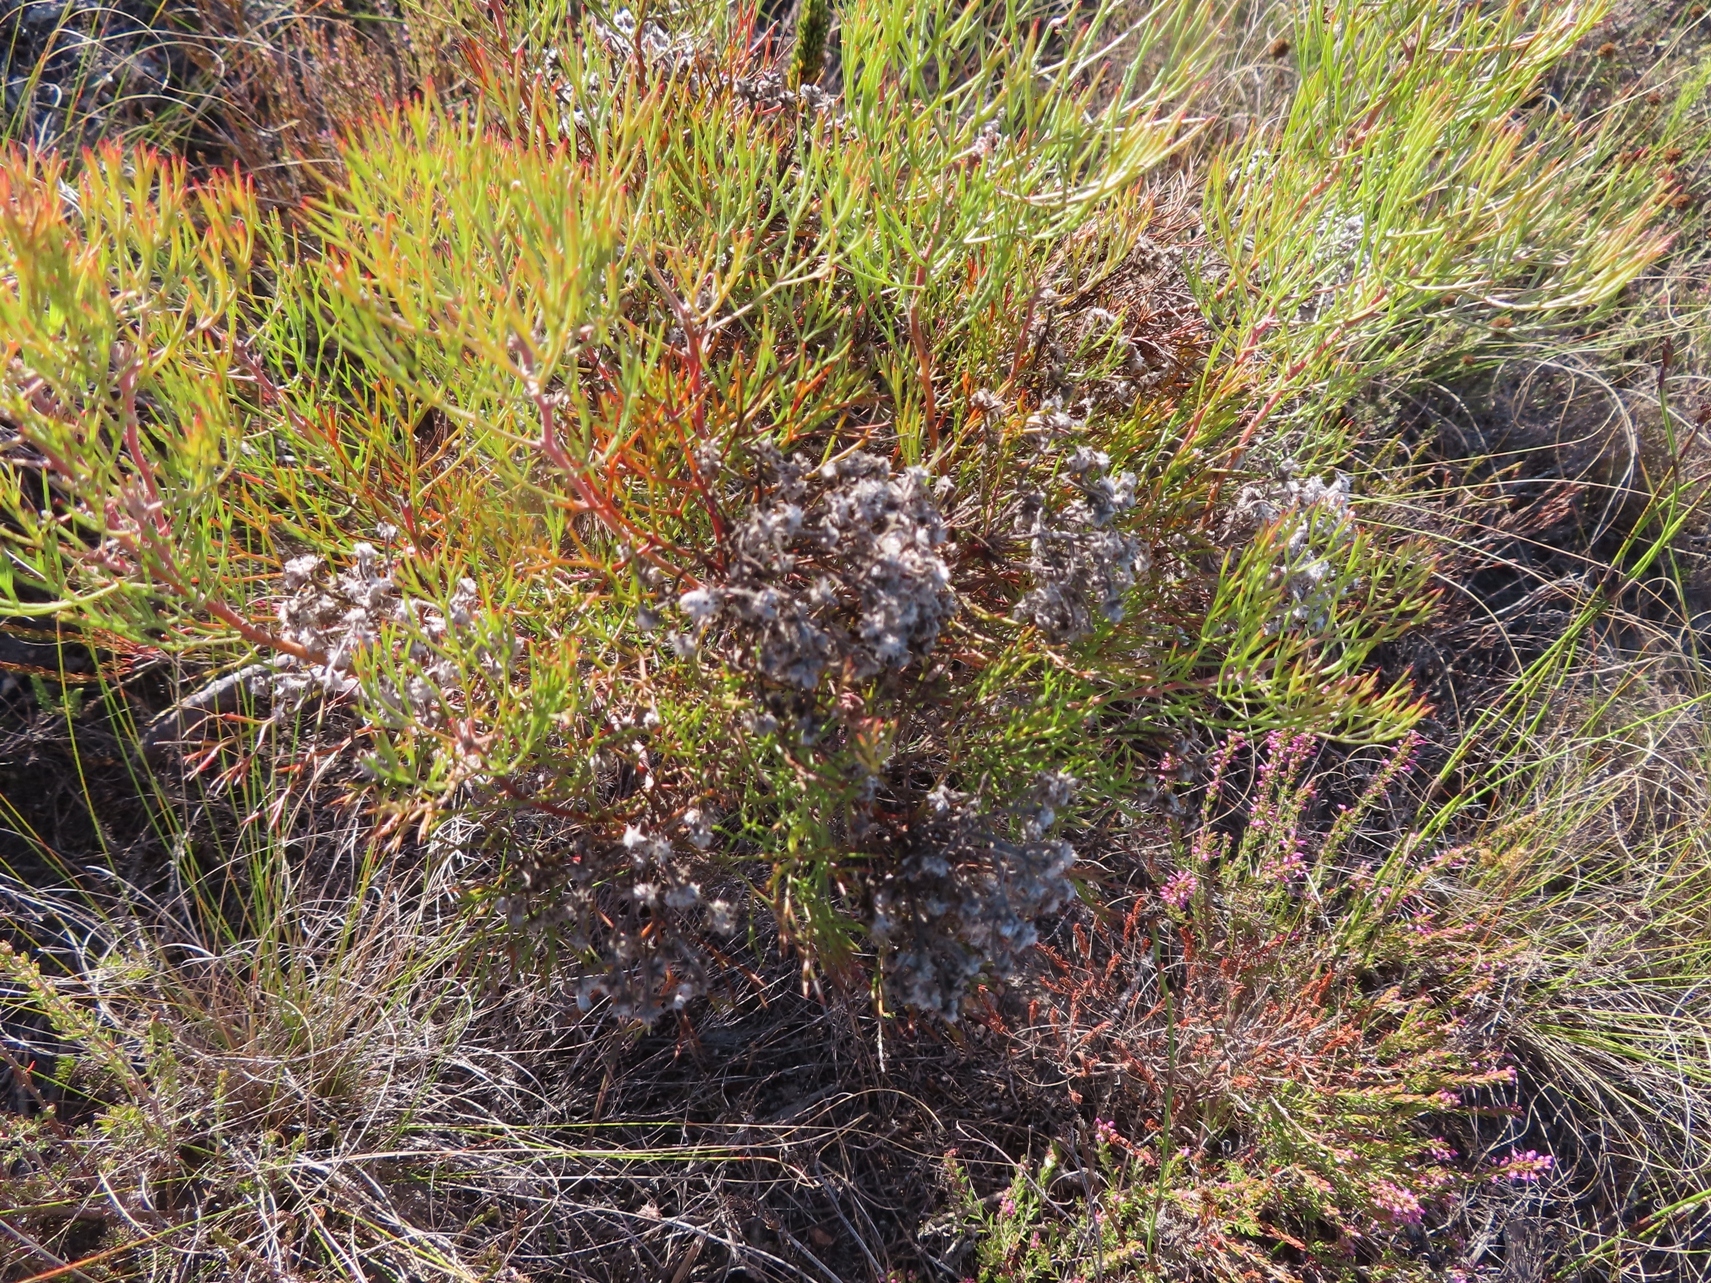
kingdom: Plantae
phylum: Tracheophyta
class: Magnoliopsida
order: Proteales
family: Proteaceae
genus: Serruria
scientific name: Serruria fasciflora
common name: Common pin spiderhead
